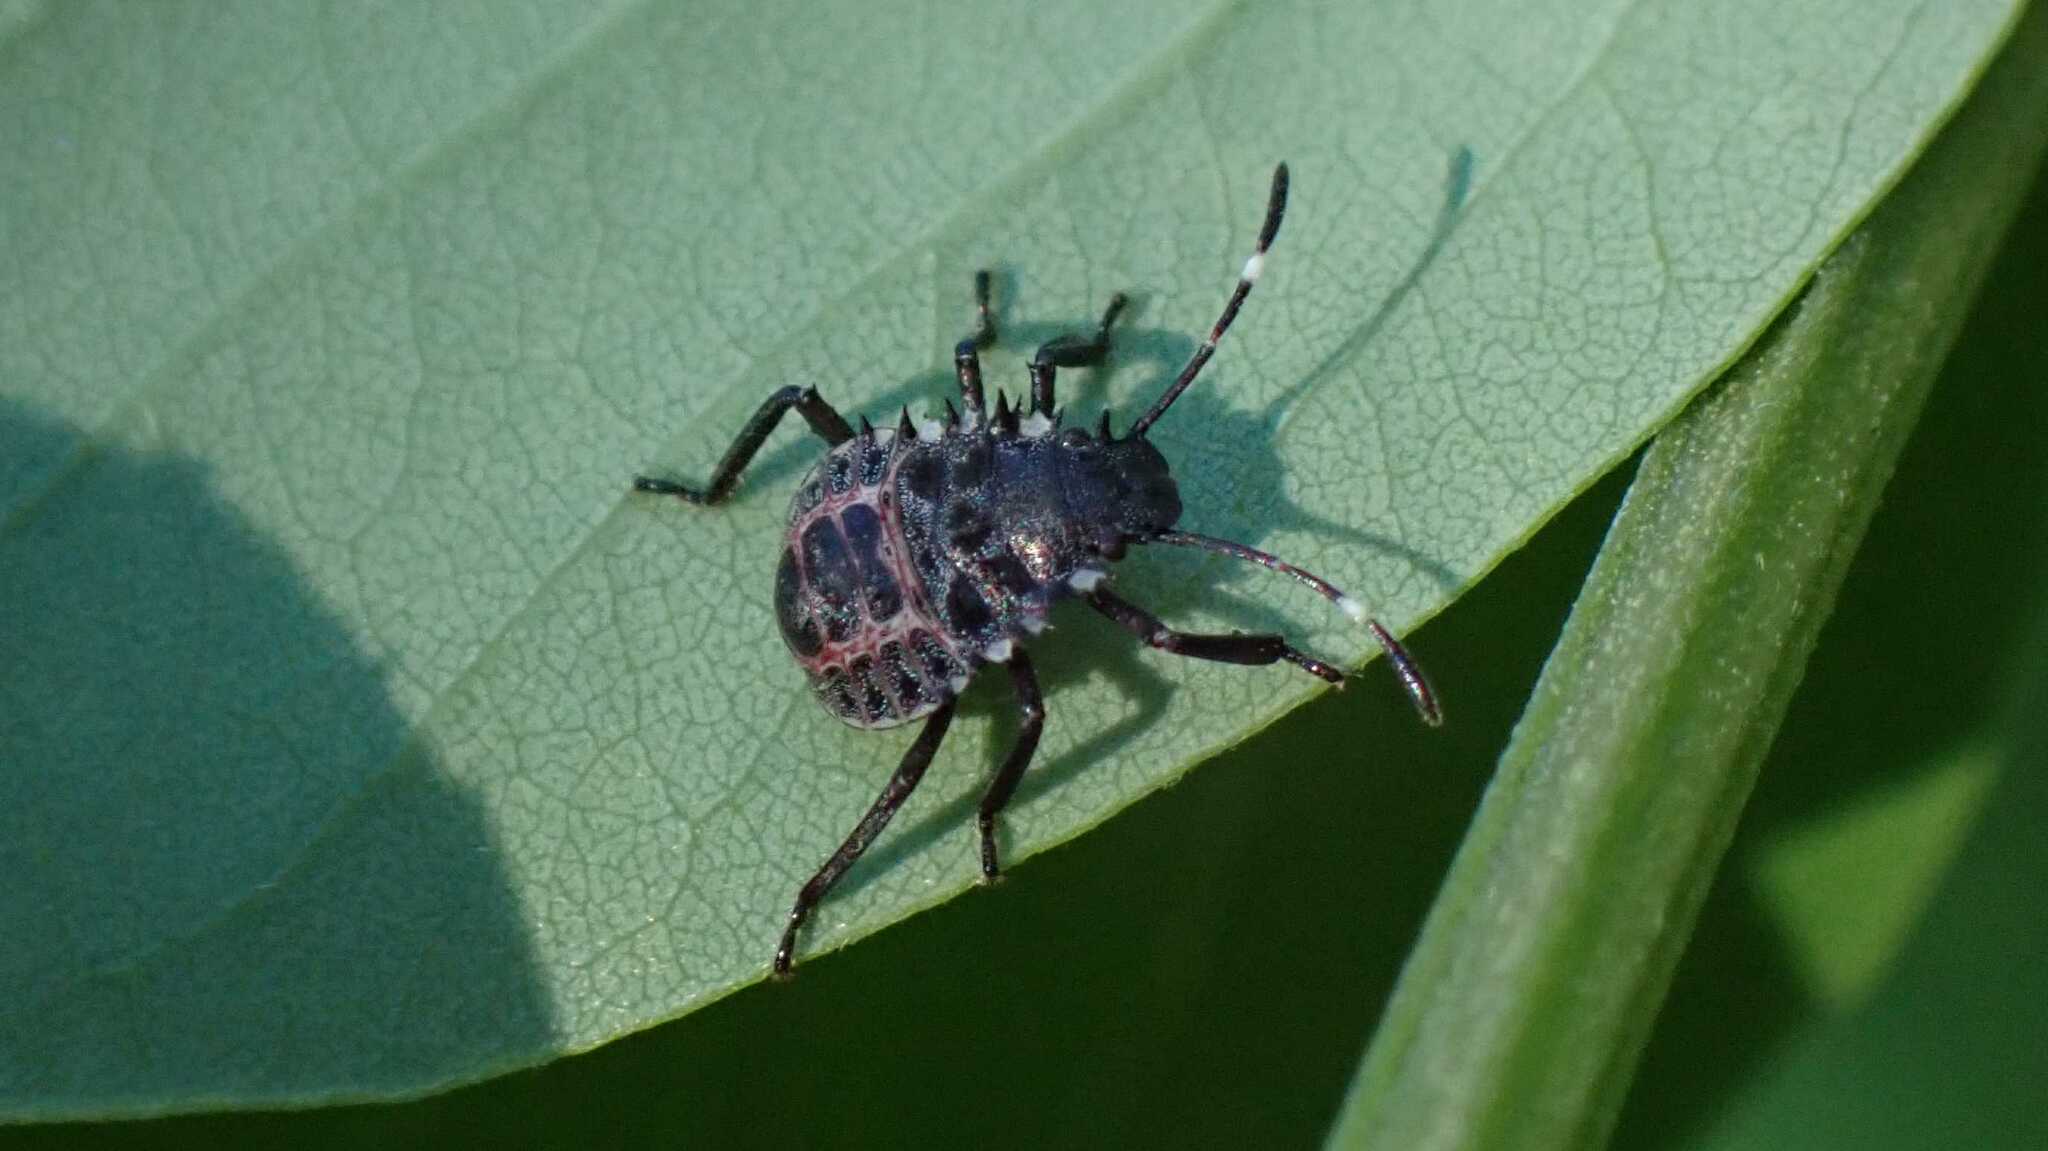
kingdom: Animalia
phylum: Arthropoda
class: Insecta
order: Hemiptera
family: Pentatomidae
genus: Halyomorpha
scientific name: Halyomorpha halys
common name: Brown marmorated stink bug
